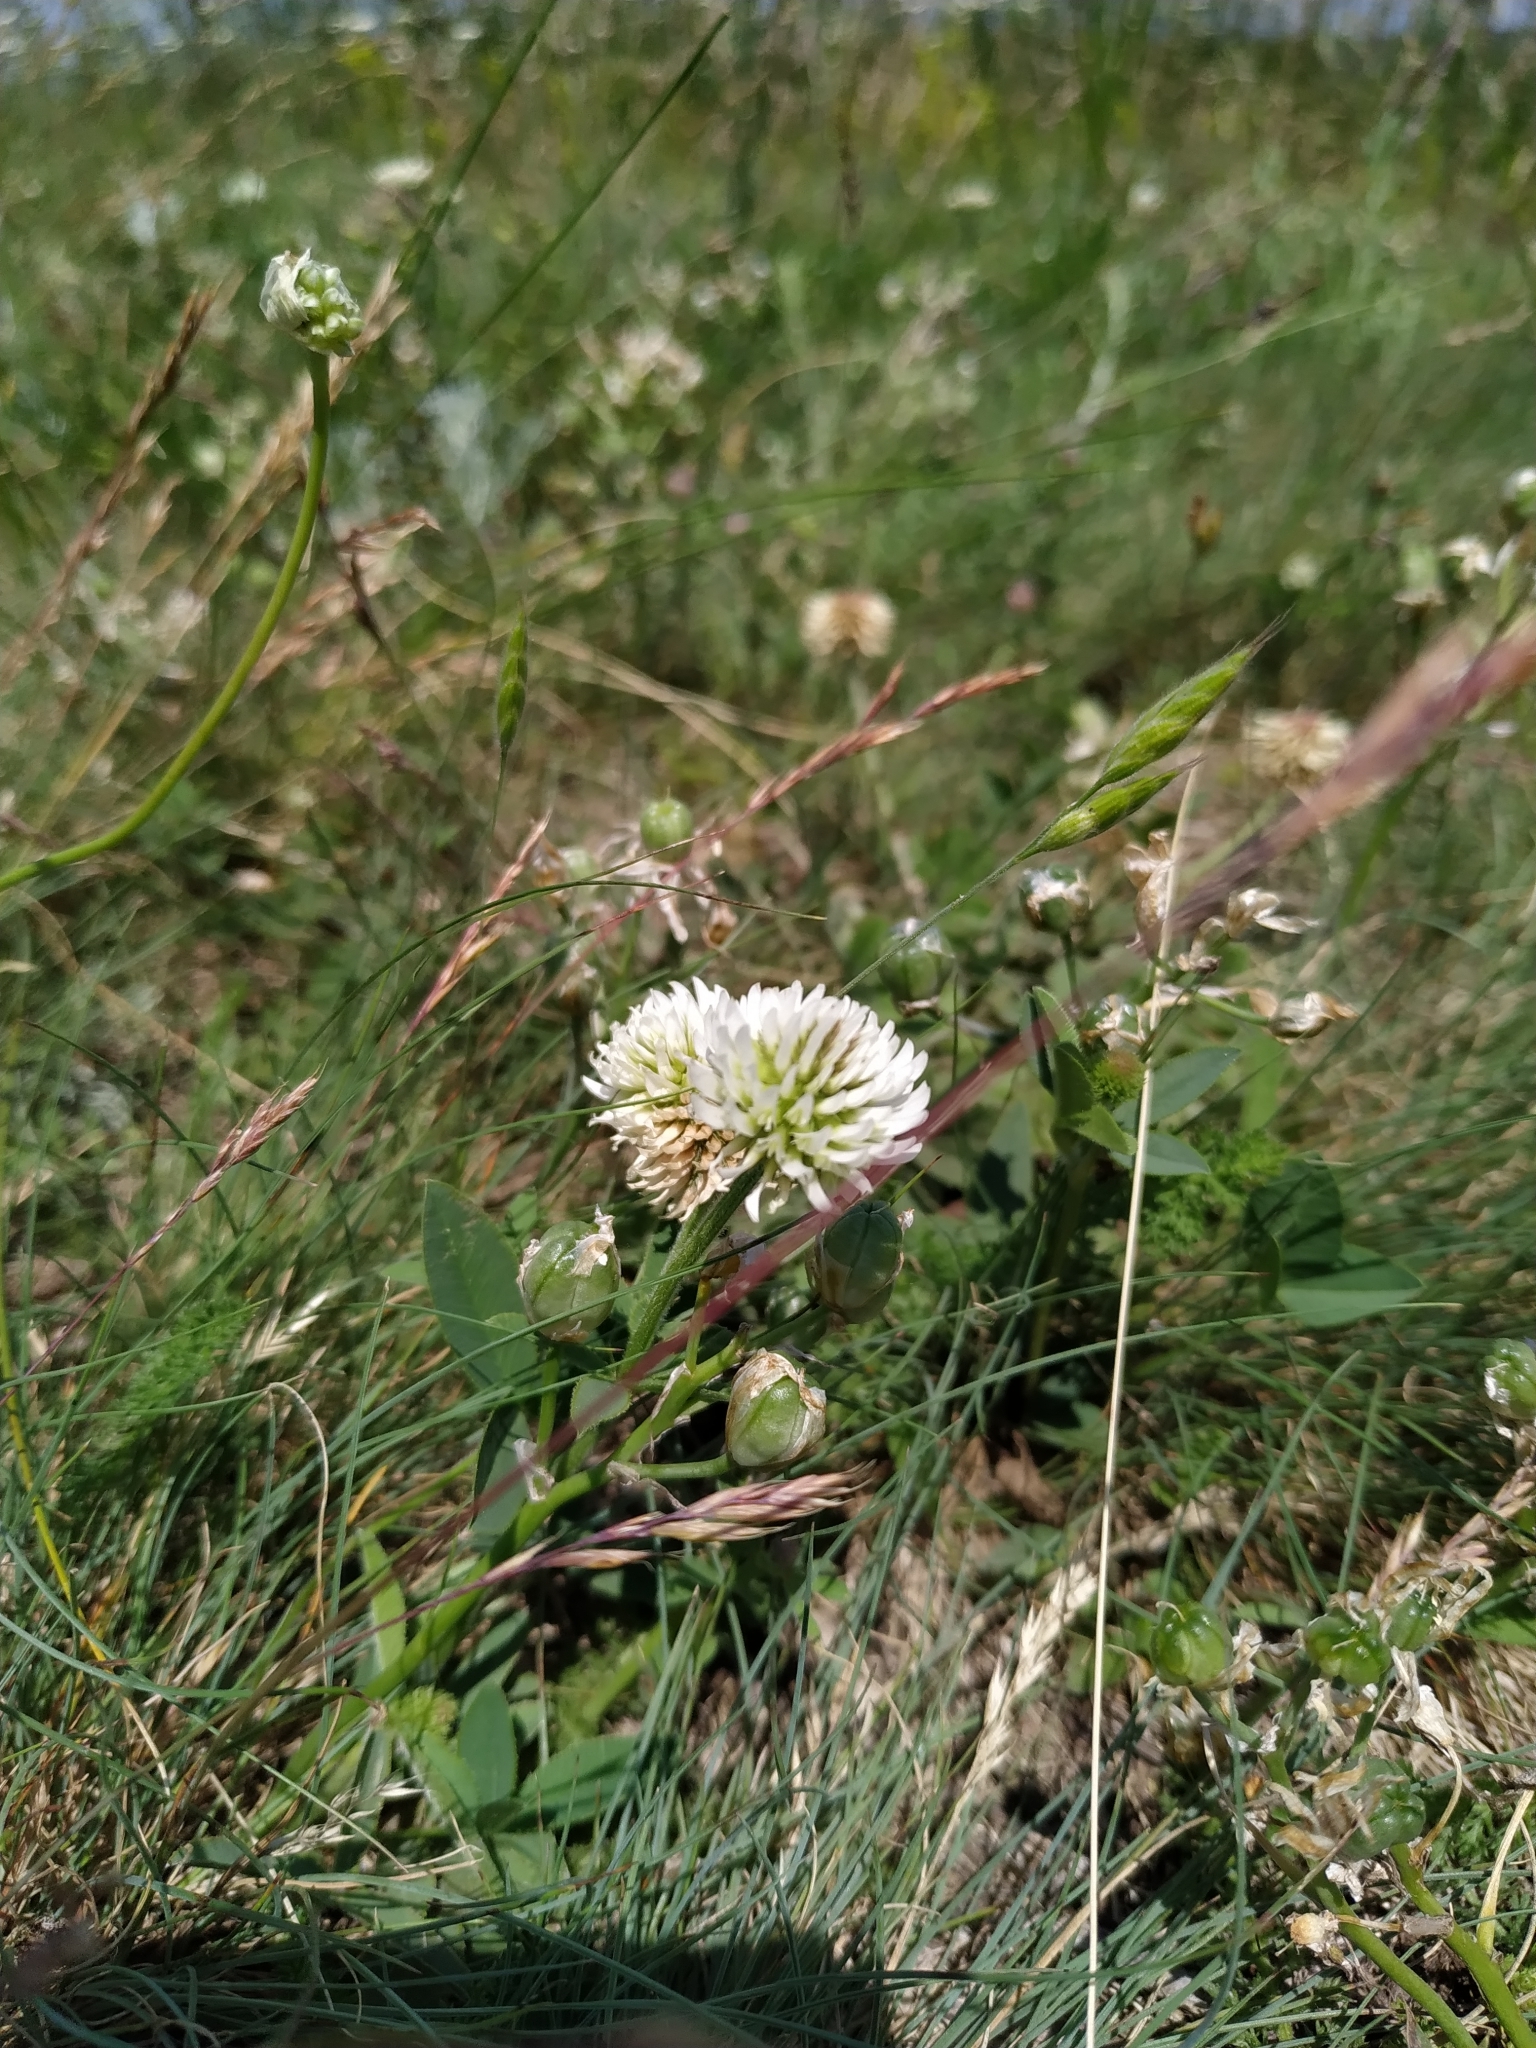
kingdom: Plantae
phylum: Tracheophyta
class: Magnoliopsida
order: Fabales
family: Fabaceae
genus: Trifolium
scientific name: Trifolium montanum
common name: Mountain clover
